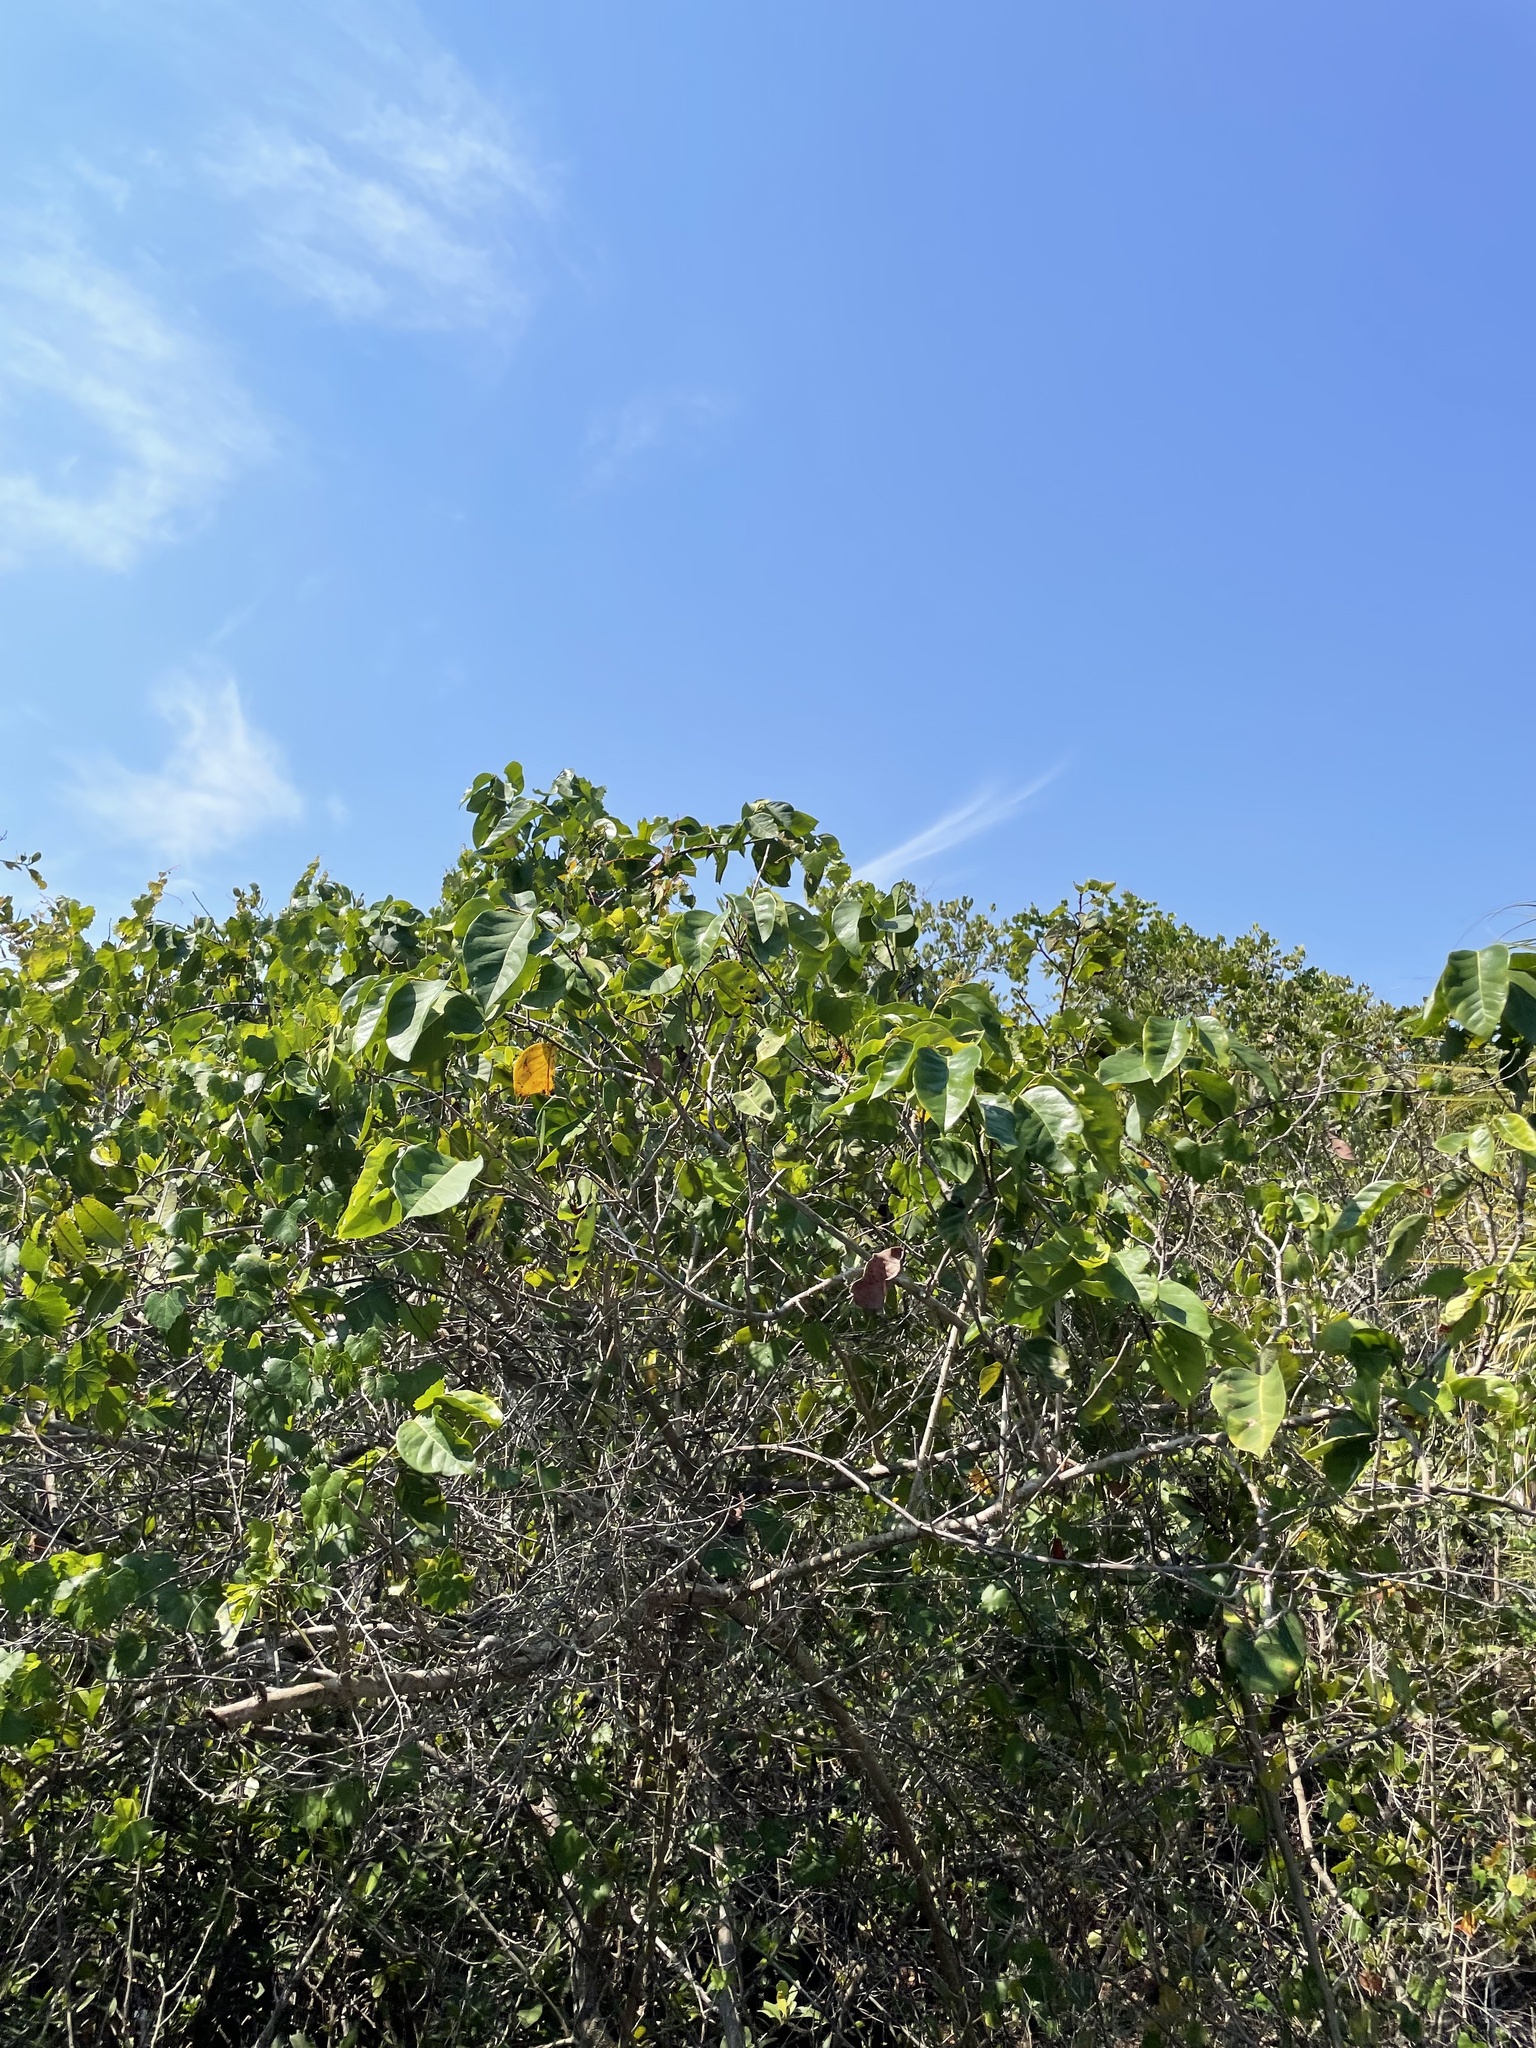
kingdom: Plantae
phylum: Tracheophyta
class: Magnoliopsida
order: Fabales
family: Fabaceae
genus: Dalbergia
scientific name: Dalbergia ecastaphyllum
